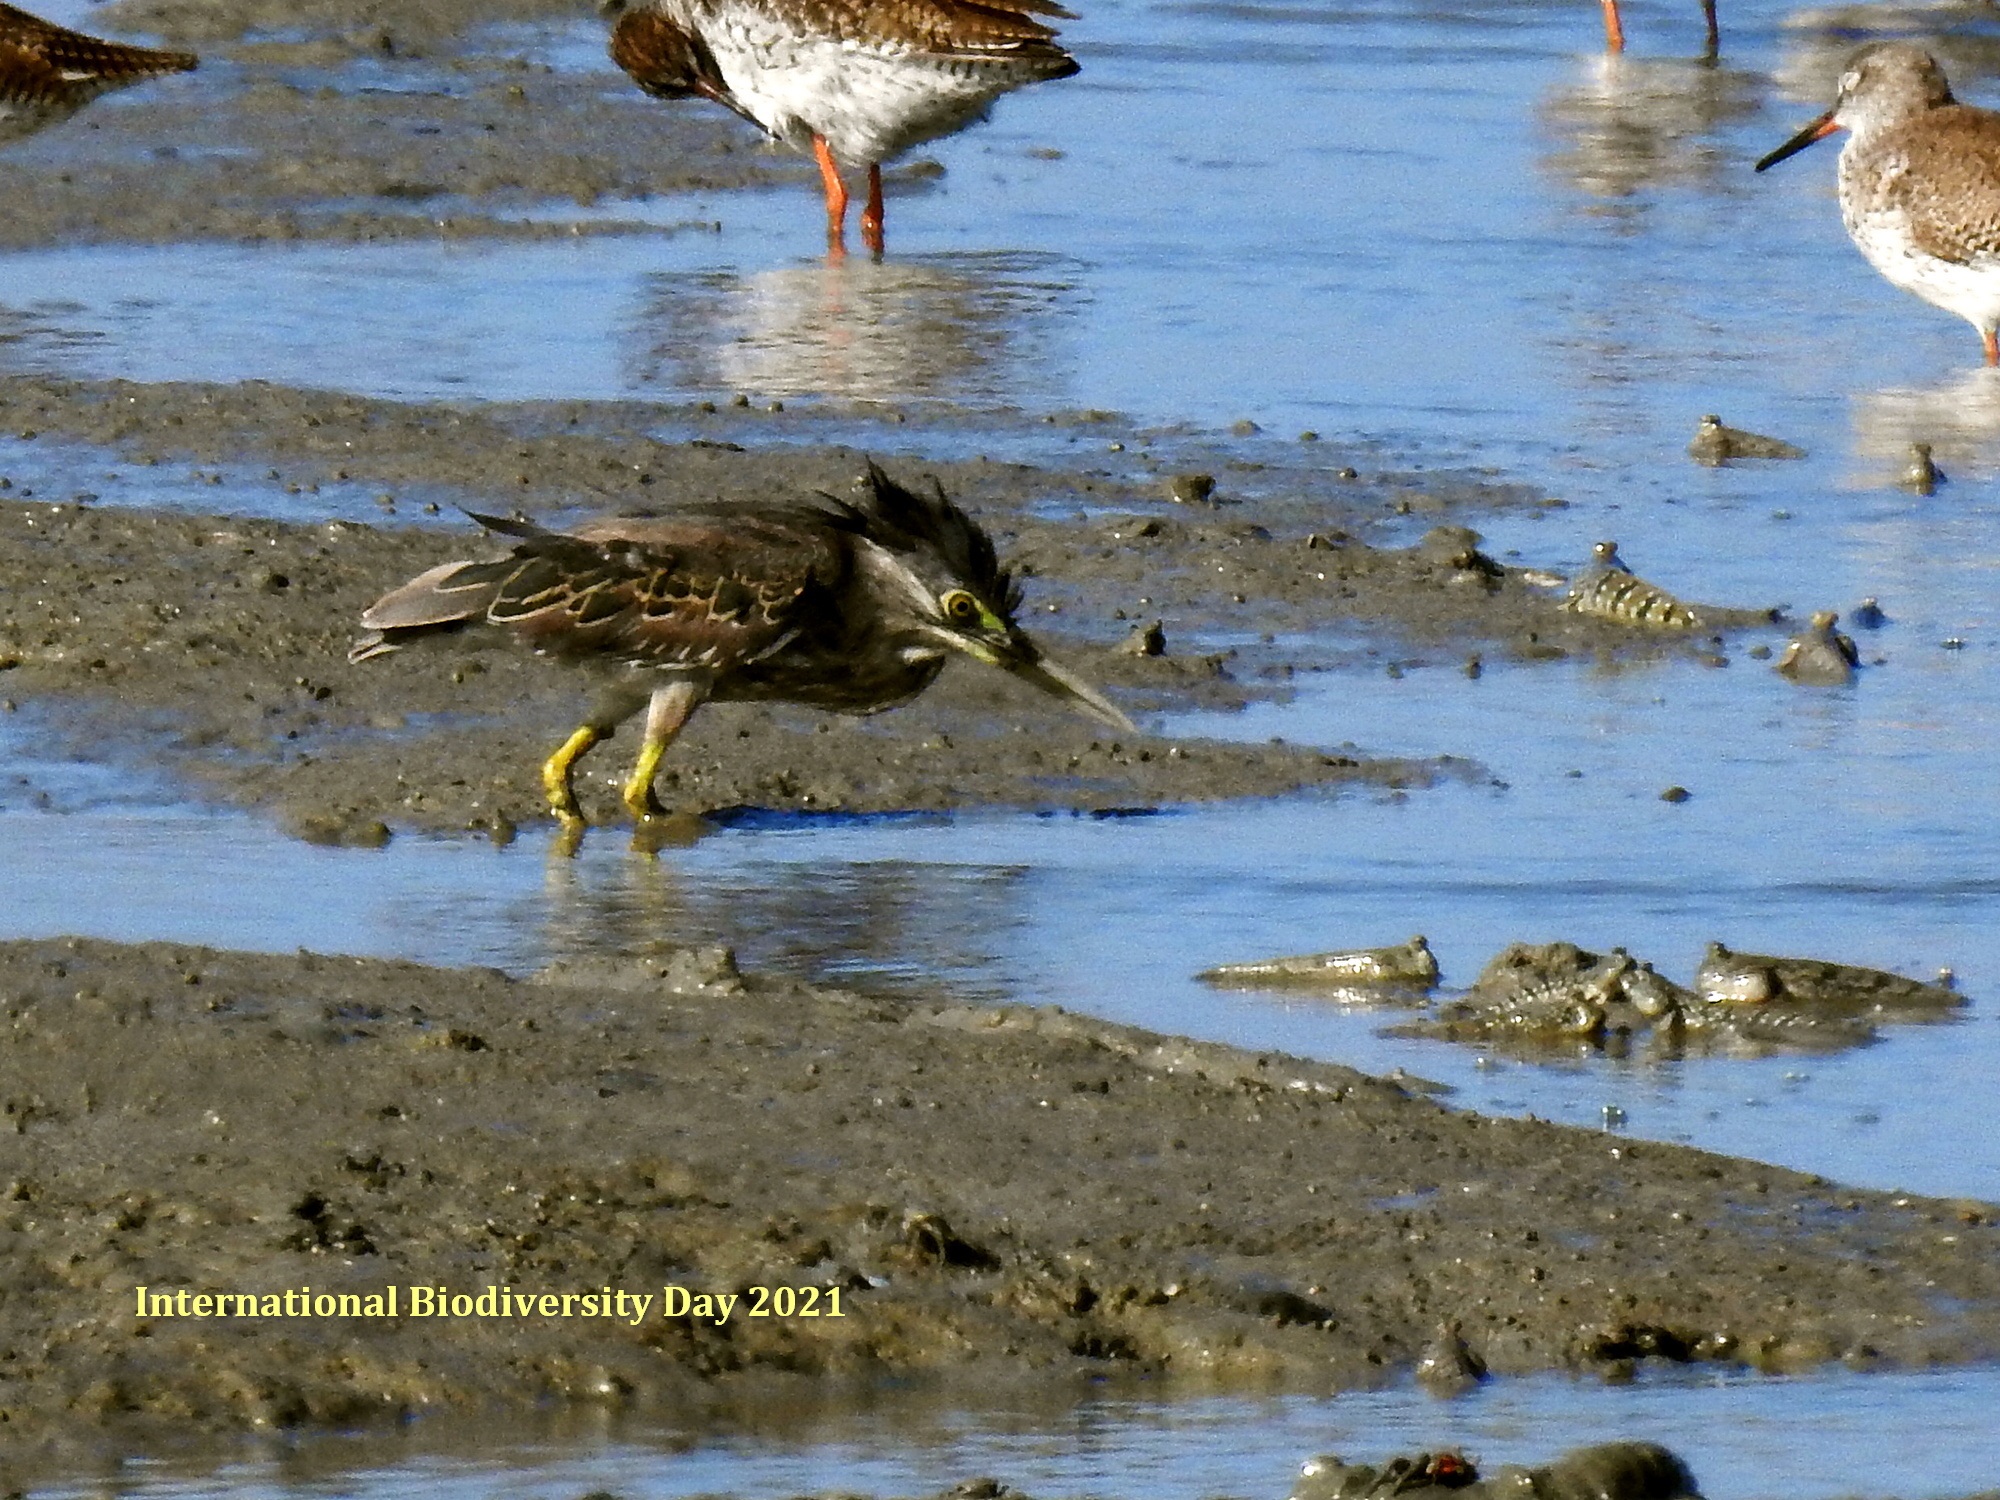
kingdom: Animalia
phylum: Chordata
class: Aves
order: Pelecaniformes
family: Ardeidae
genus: Butorides
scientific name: Butorides striata
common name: Striated heron
